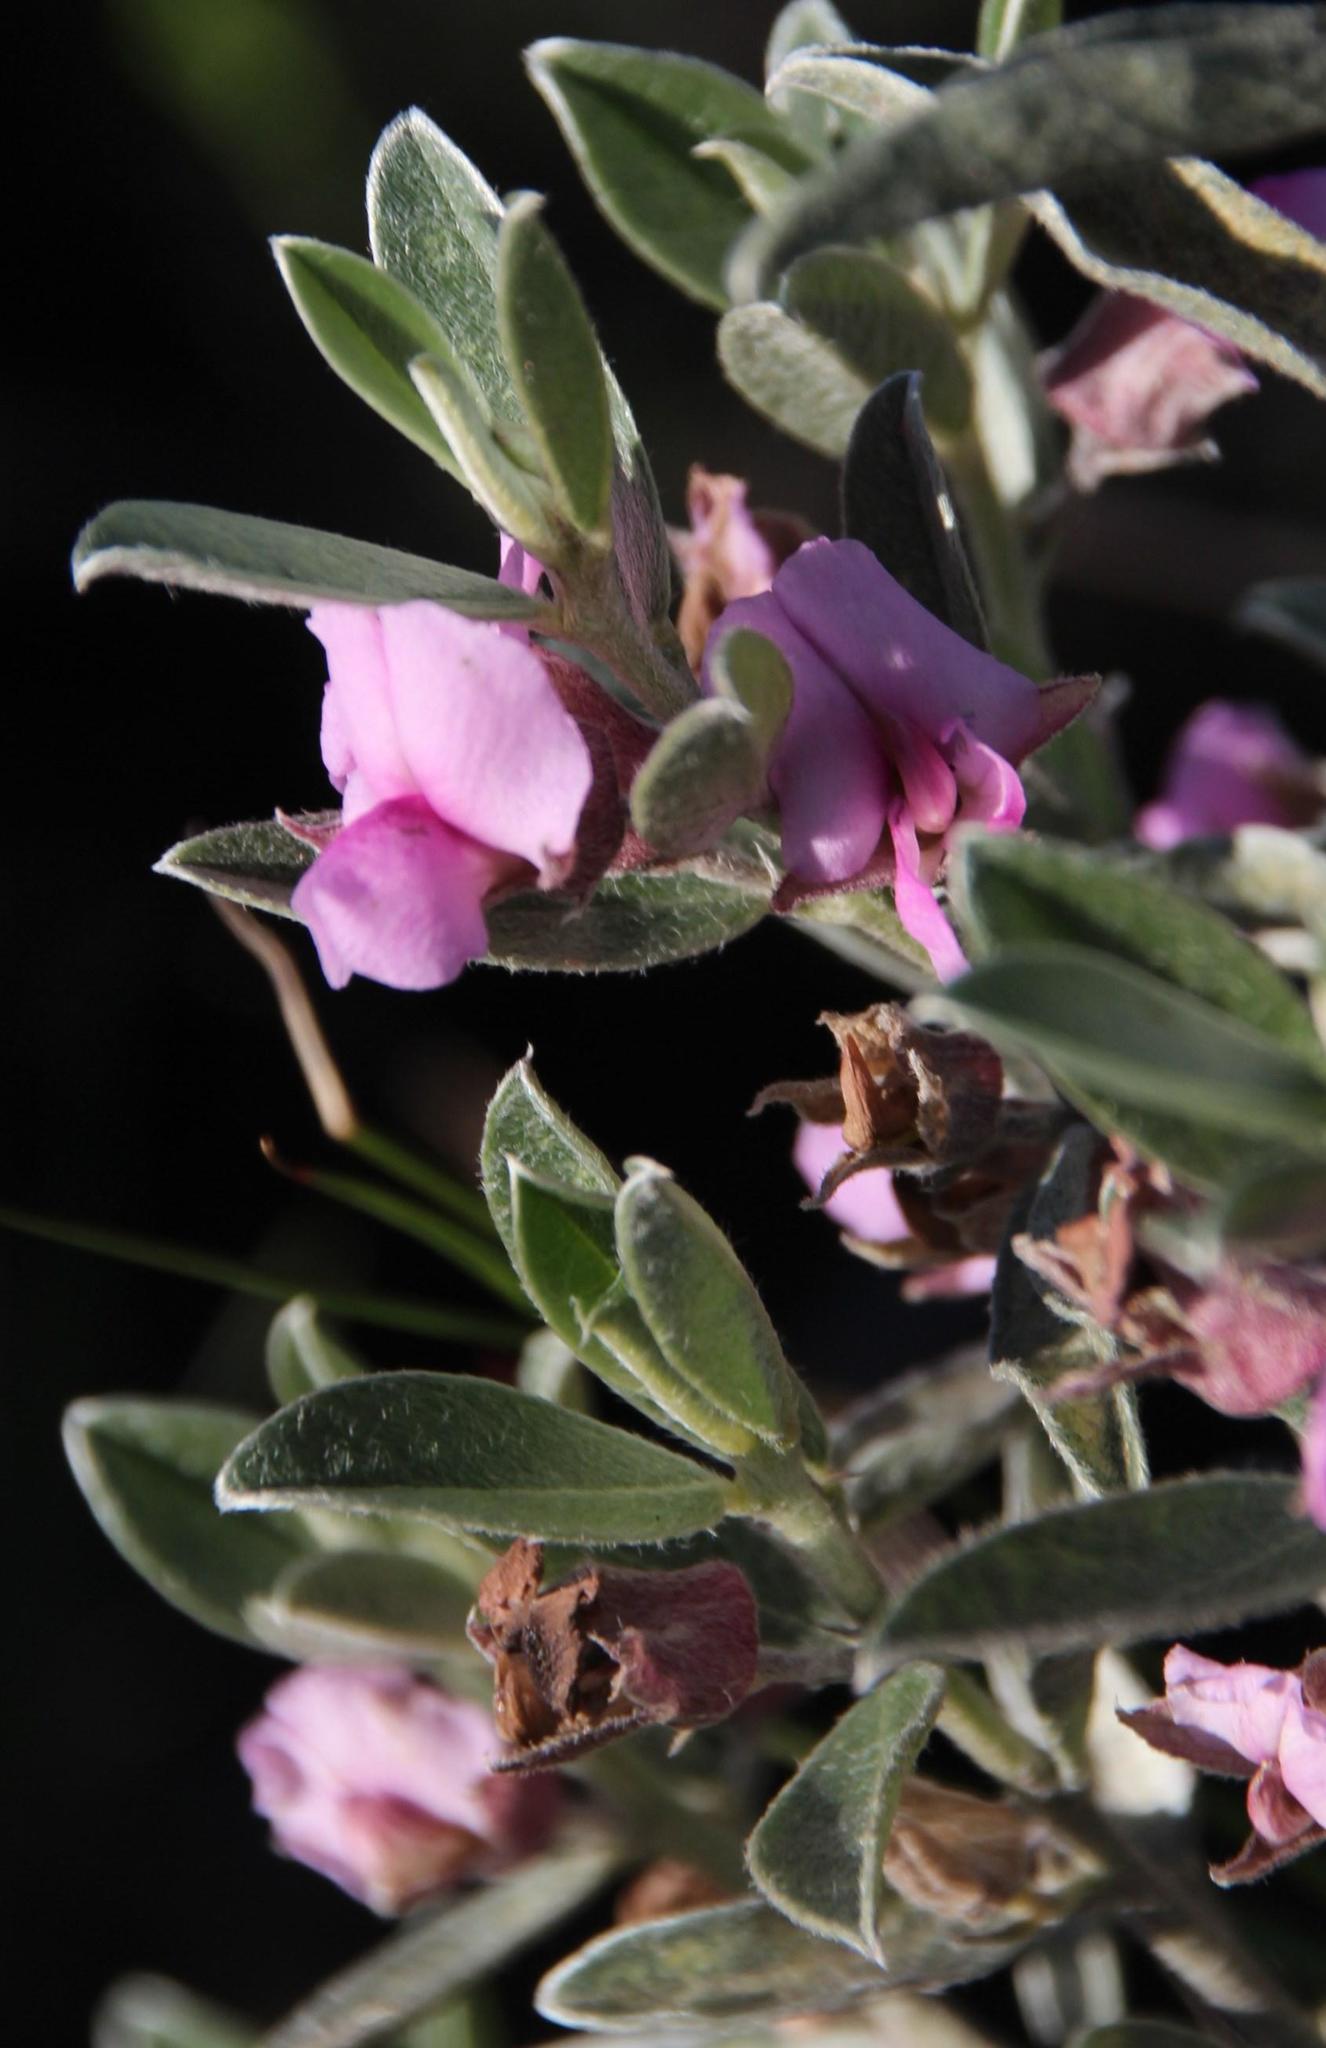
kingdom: Plantae
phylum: Tracheophyta
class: Magnoliopsida
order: Fabales
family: Fabaceae
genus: Podalyria
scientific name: Podalyria sericea
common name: Silver podalyria
